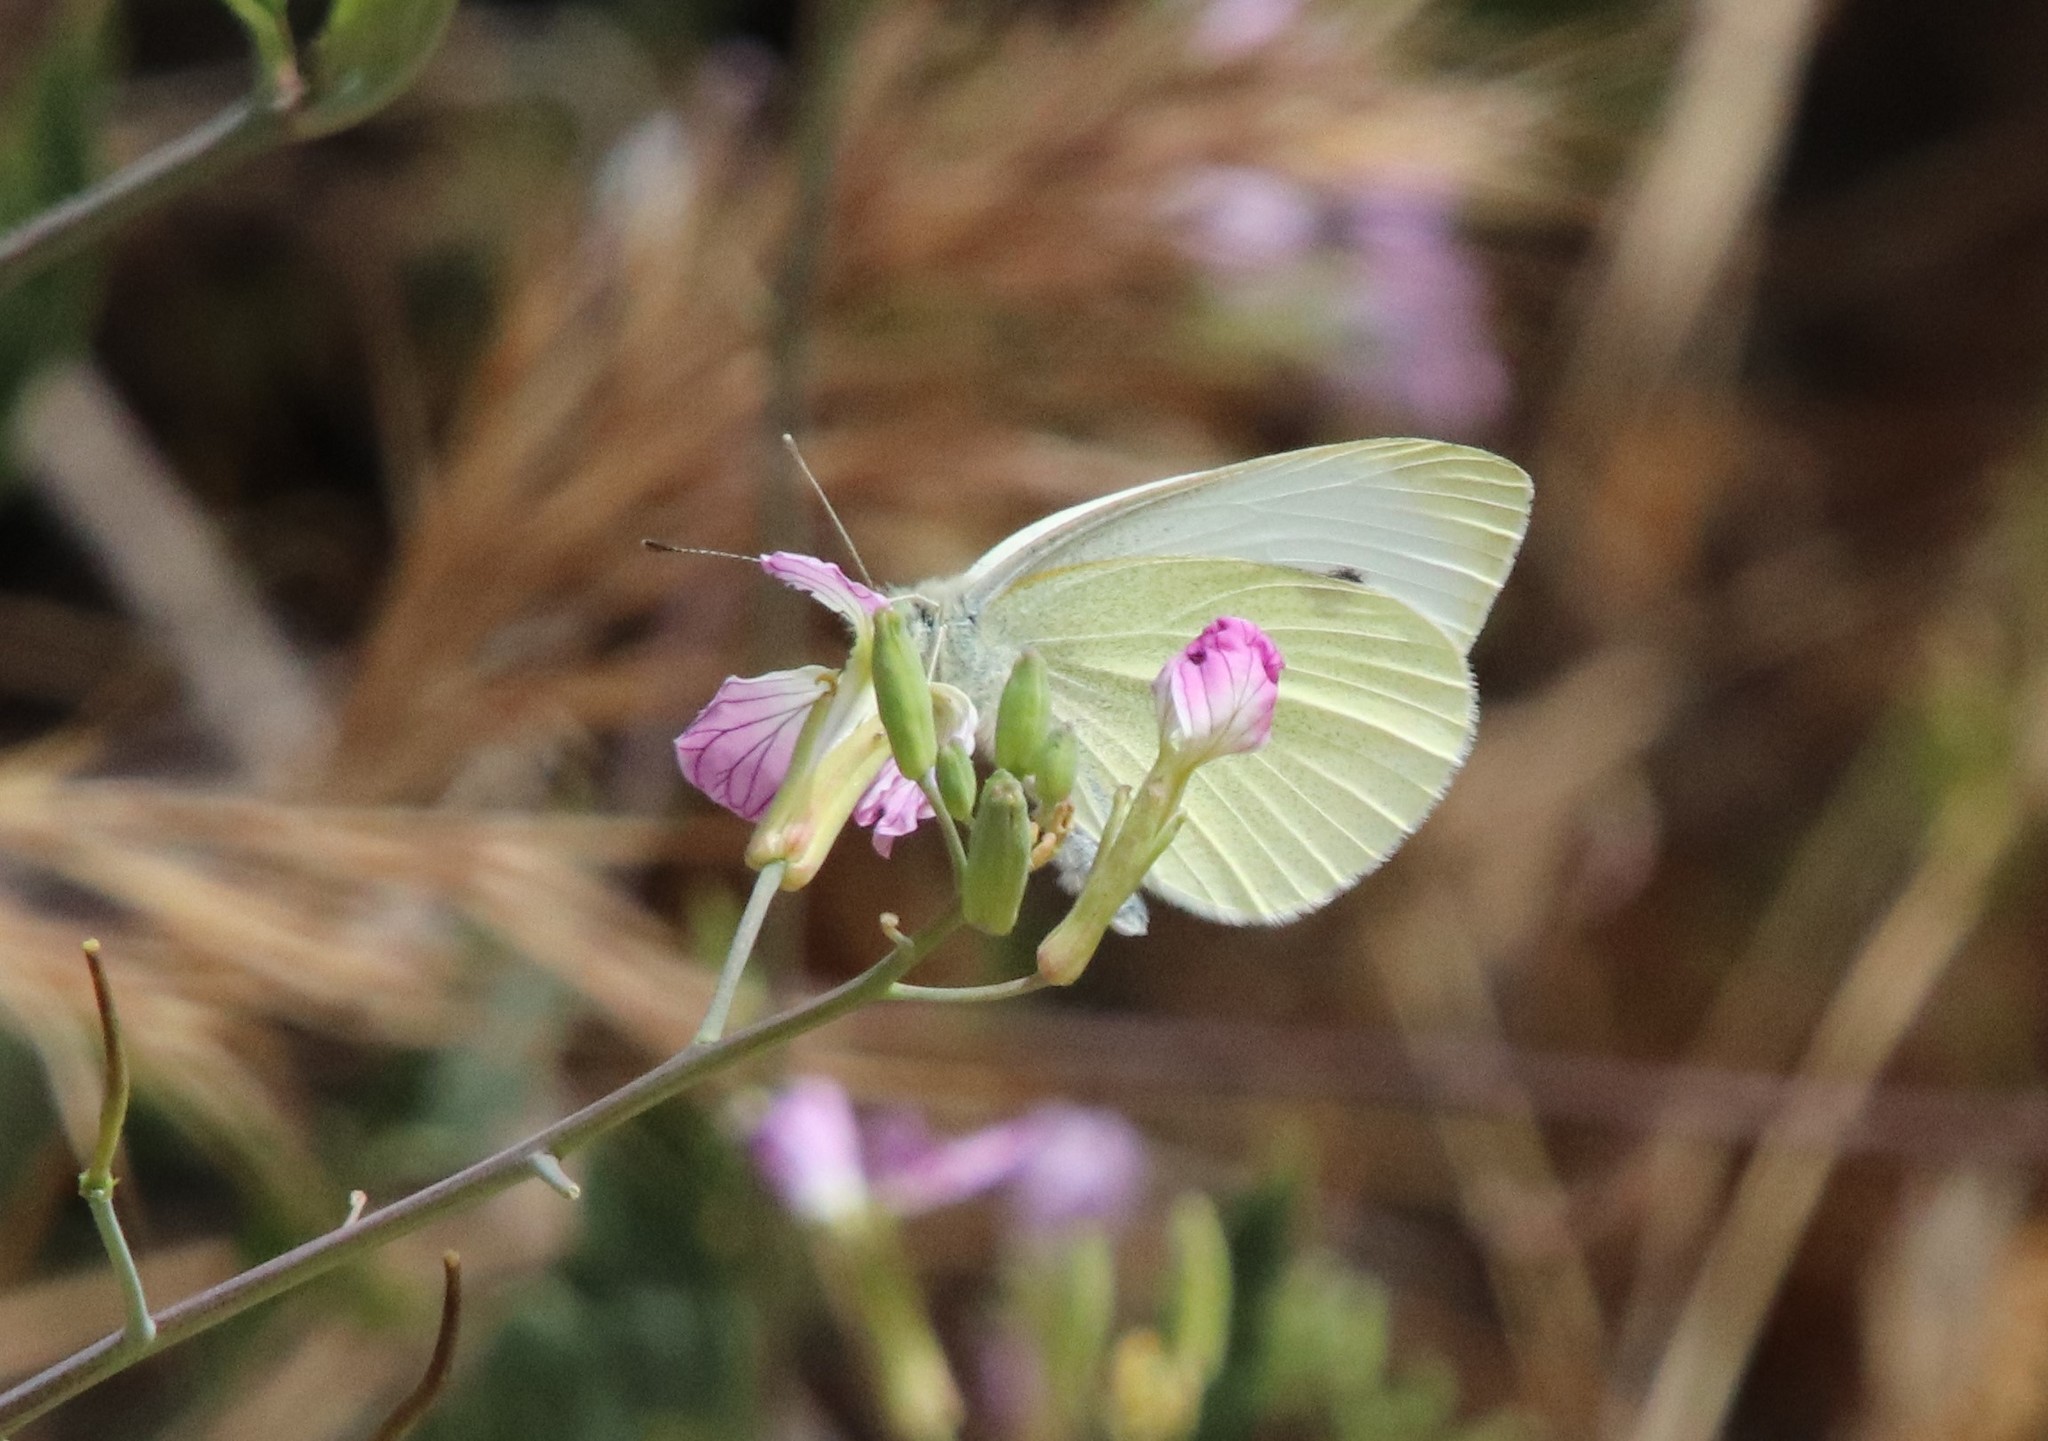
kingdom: Animalia
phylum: Arthropoda
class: Insecta
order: Lepidoptera
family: Pieridae
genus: Pieris
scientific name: Pieris rapae
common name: Small white
